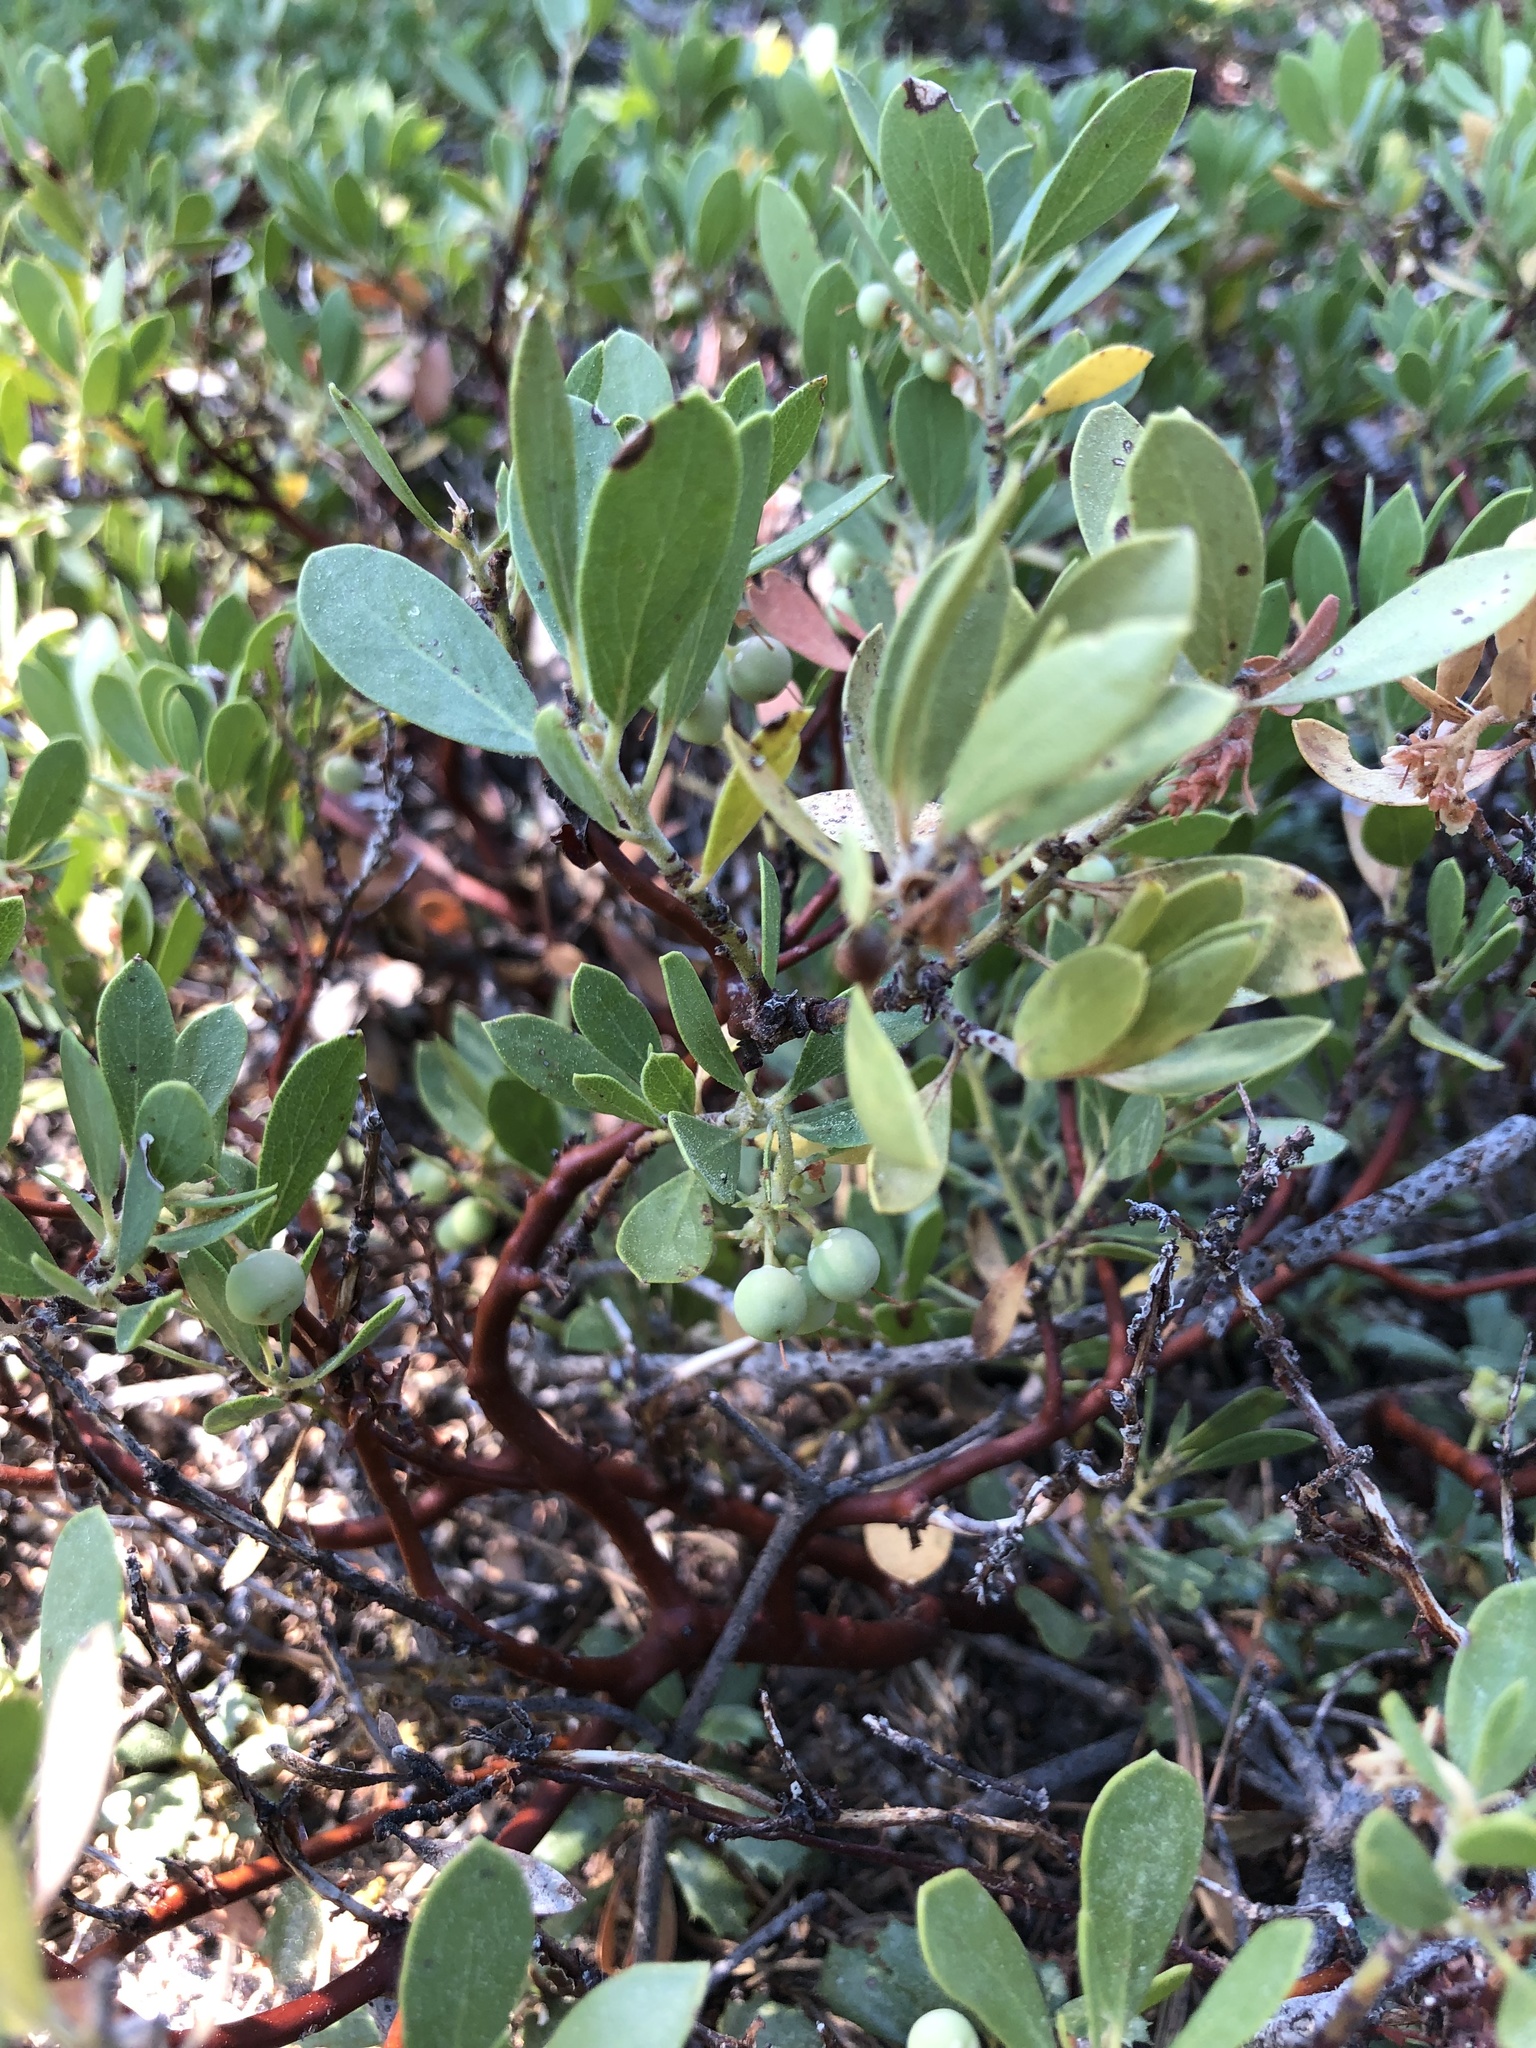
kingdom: Plantae
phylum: Tracheophyta
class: Magnoliopsida
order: Ericales
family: Ericaceae
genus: Arctostaphylos
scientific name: Arctostaphylos nevadensis
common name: Pinemat manzanita
